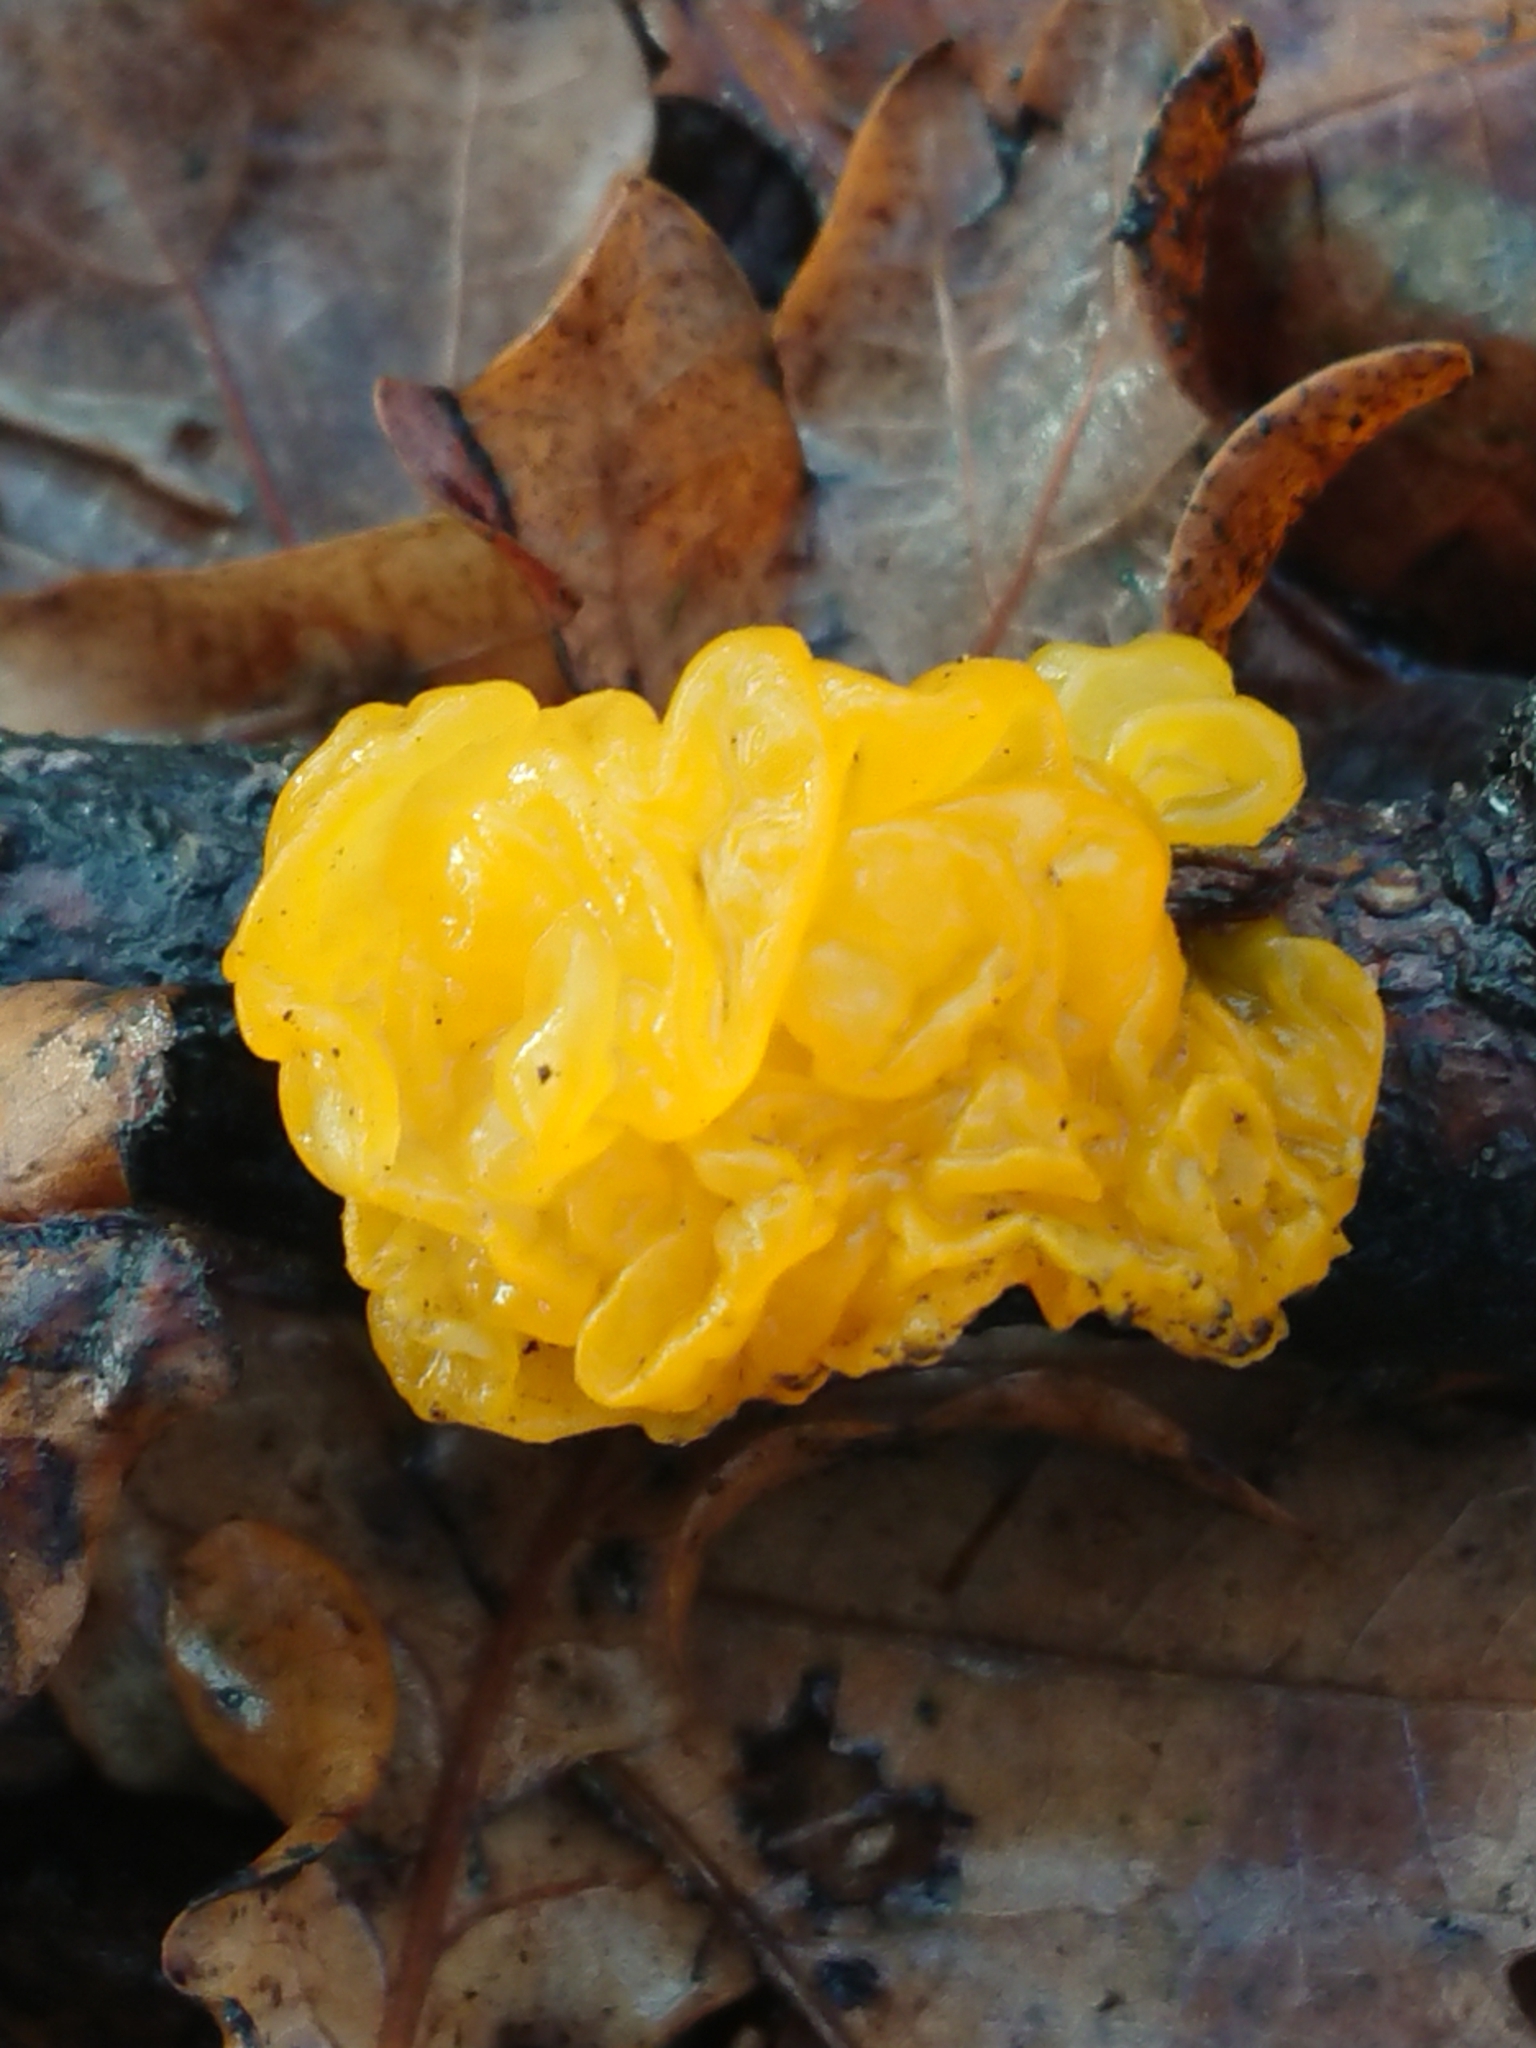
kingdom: Fungi
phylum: Basidiomycota
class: Tremellomycetes
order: Tremellales
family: Tremellaceae
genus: Tremella
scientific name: Tremella mesenterica
